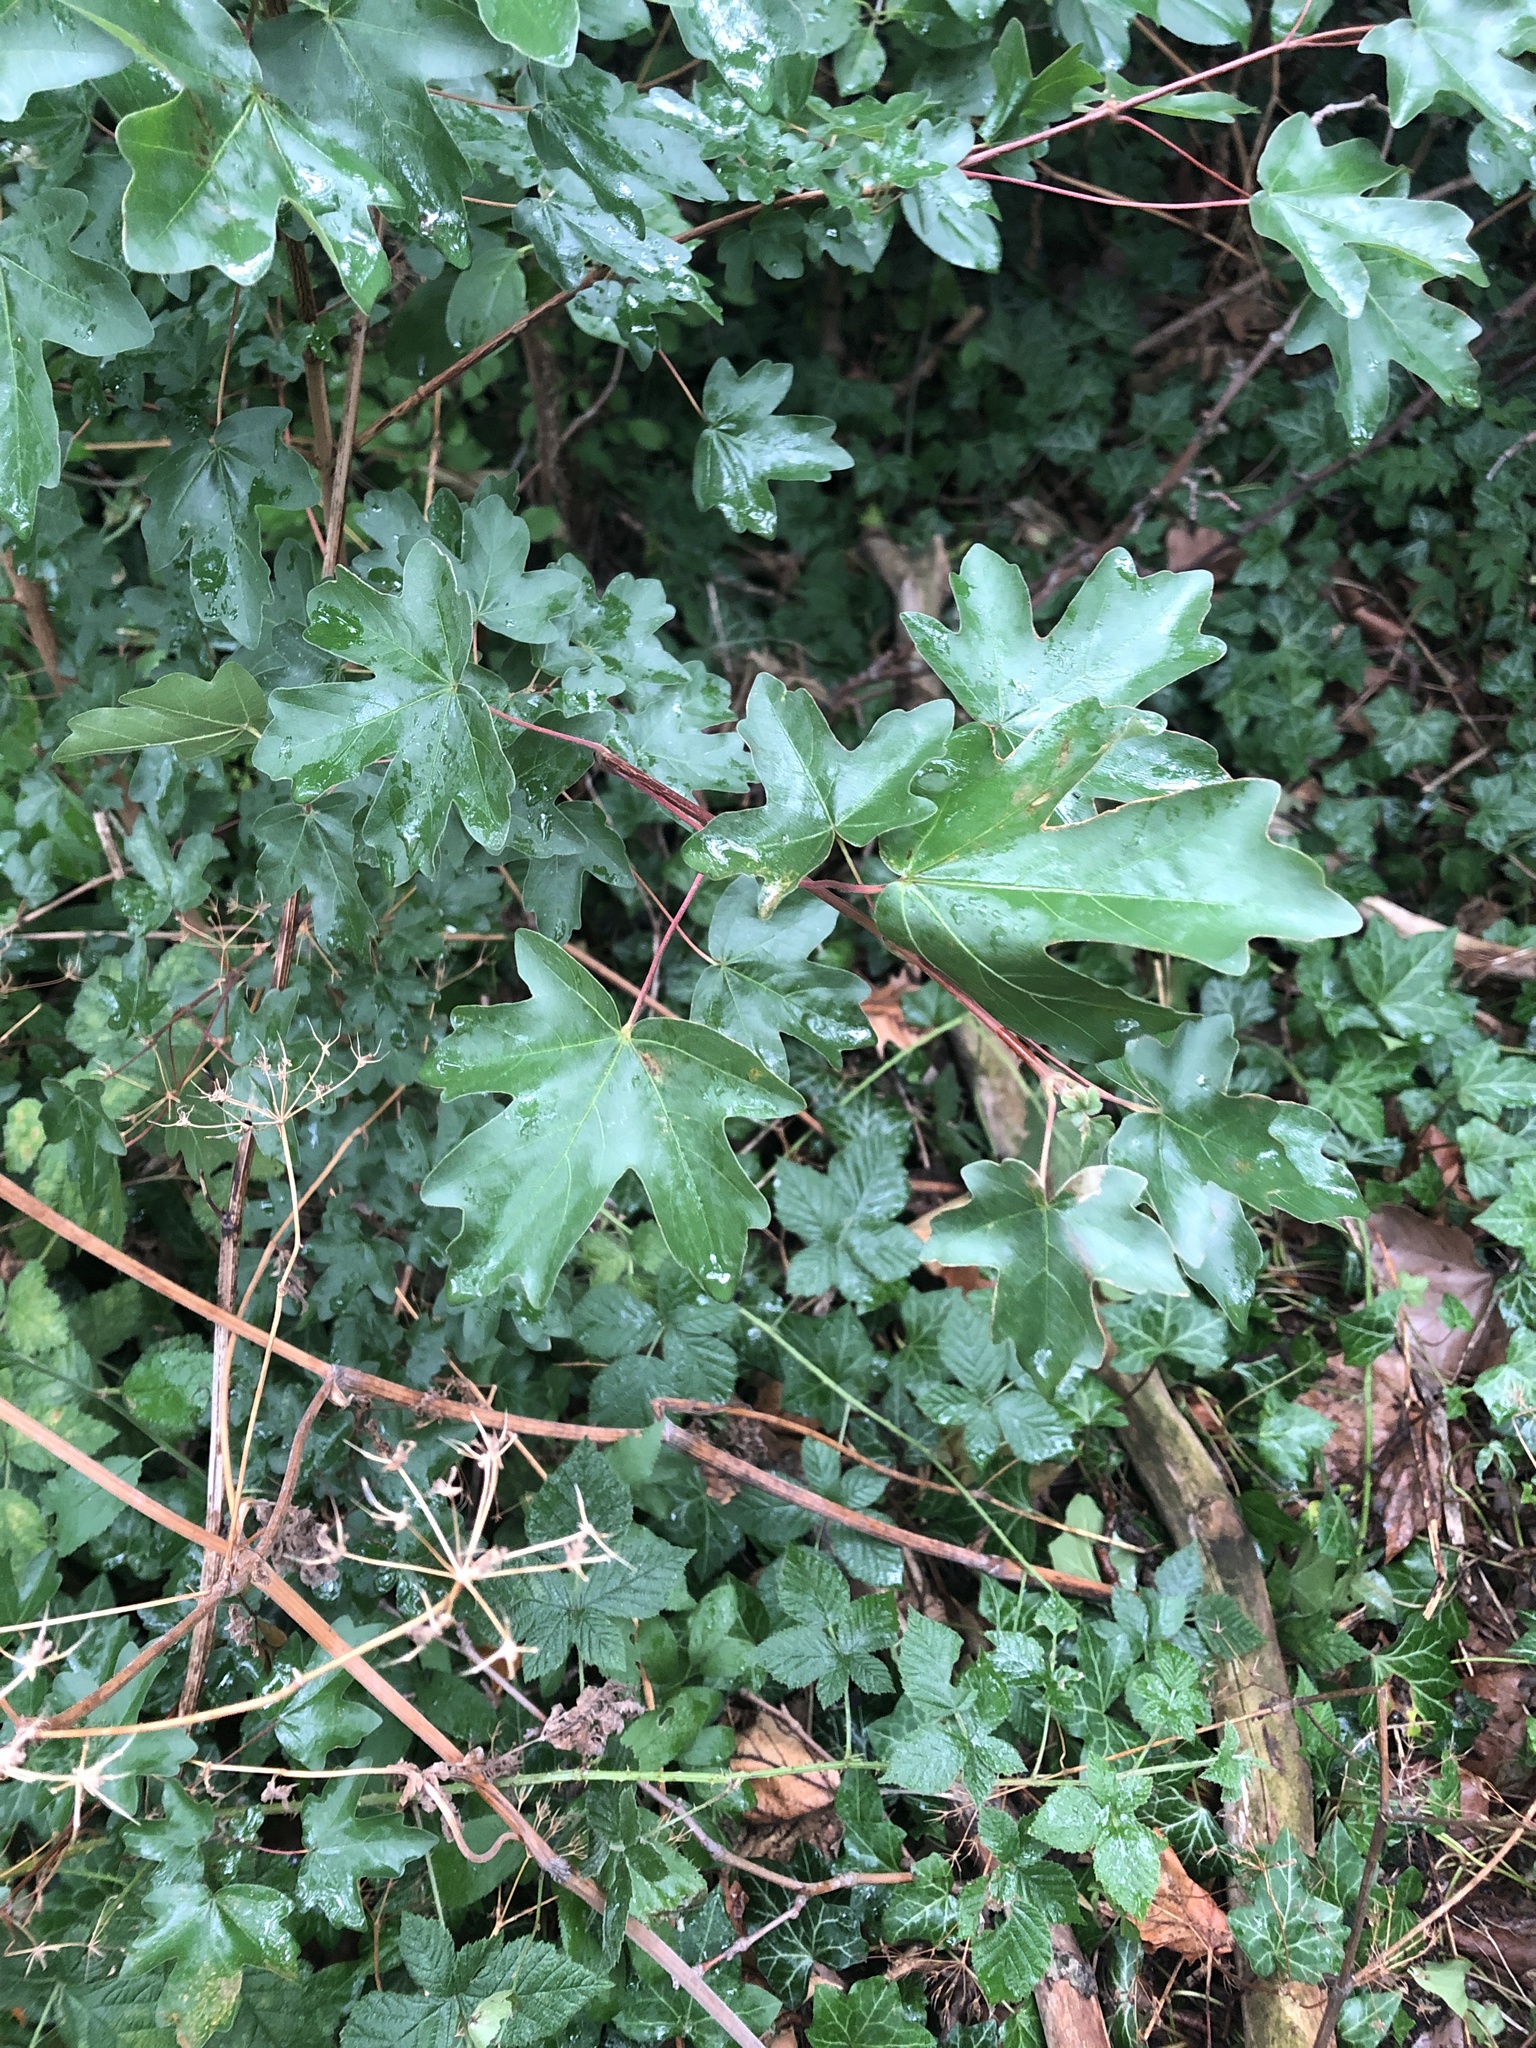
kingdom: Plantae
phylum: Tracheophyta
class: Magnoliopsida
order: Sapindales
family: Sapindaceae
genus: Acer
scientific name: Acer campestre
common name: Field maple
